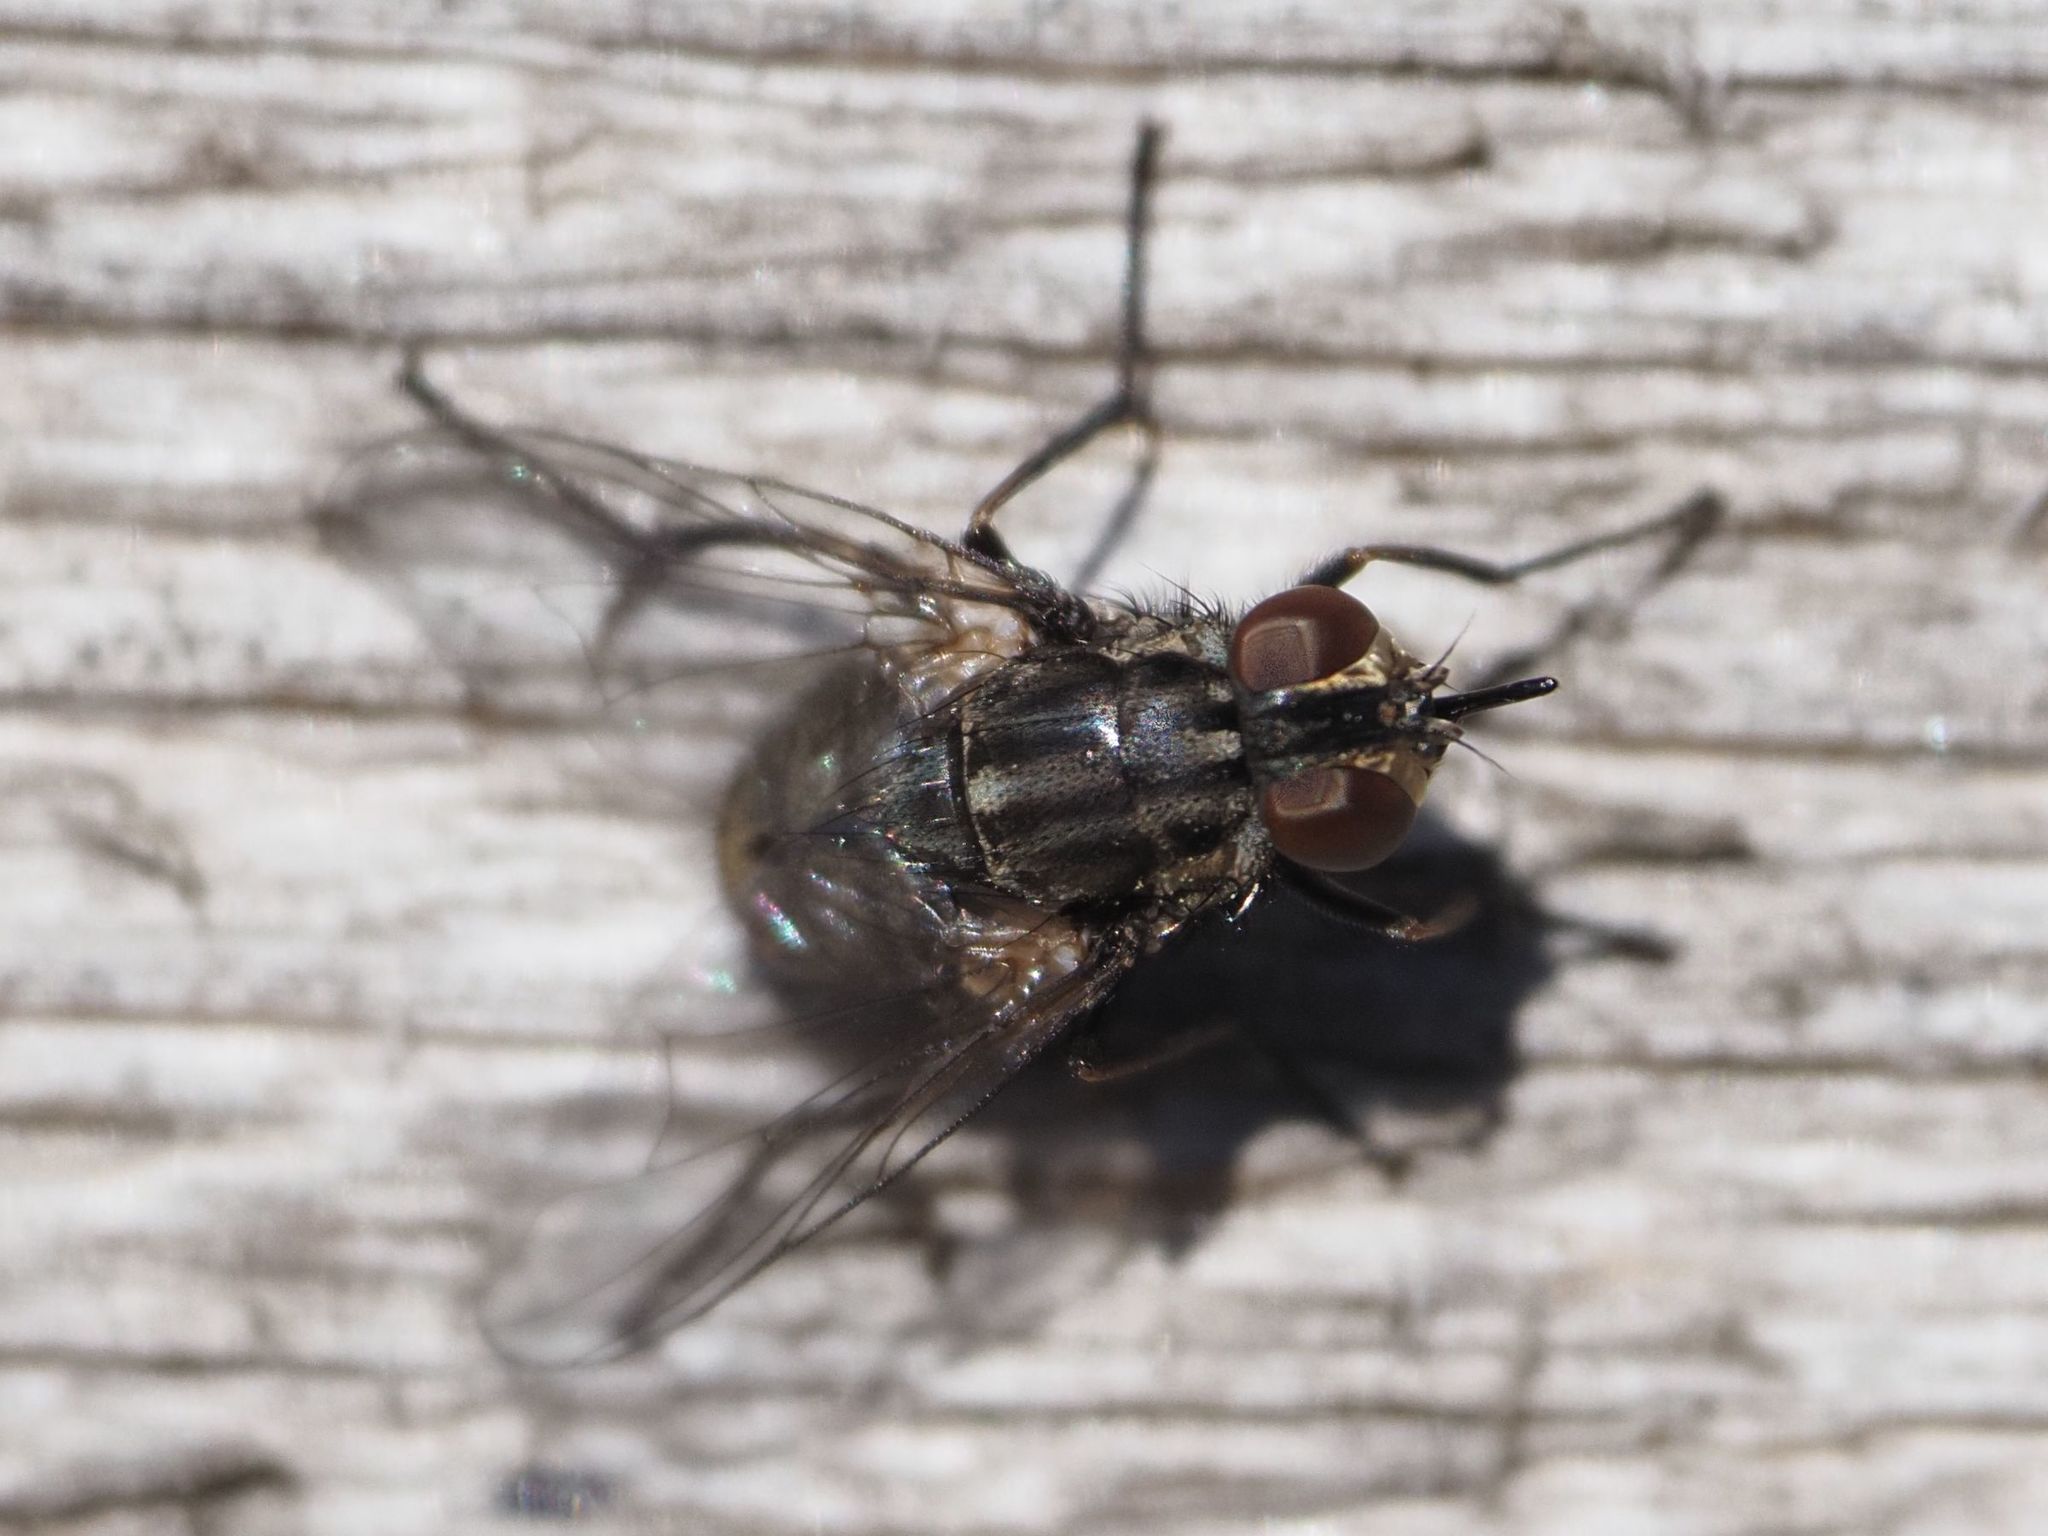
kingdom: Animalia
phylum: Arthropoda
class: Insecta
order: Diptera
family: Muscidae
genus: Stomoxys
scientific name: Stomoxys calcitrans
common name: Stable fly
